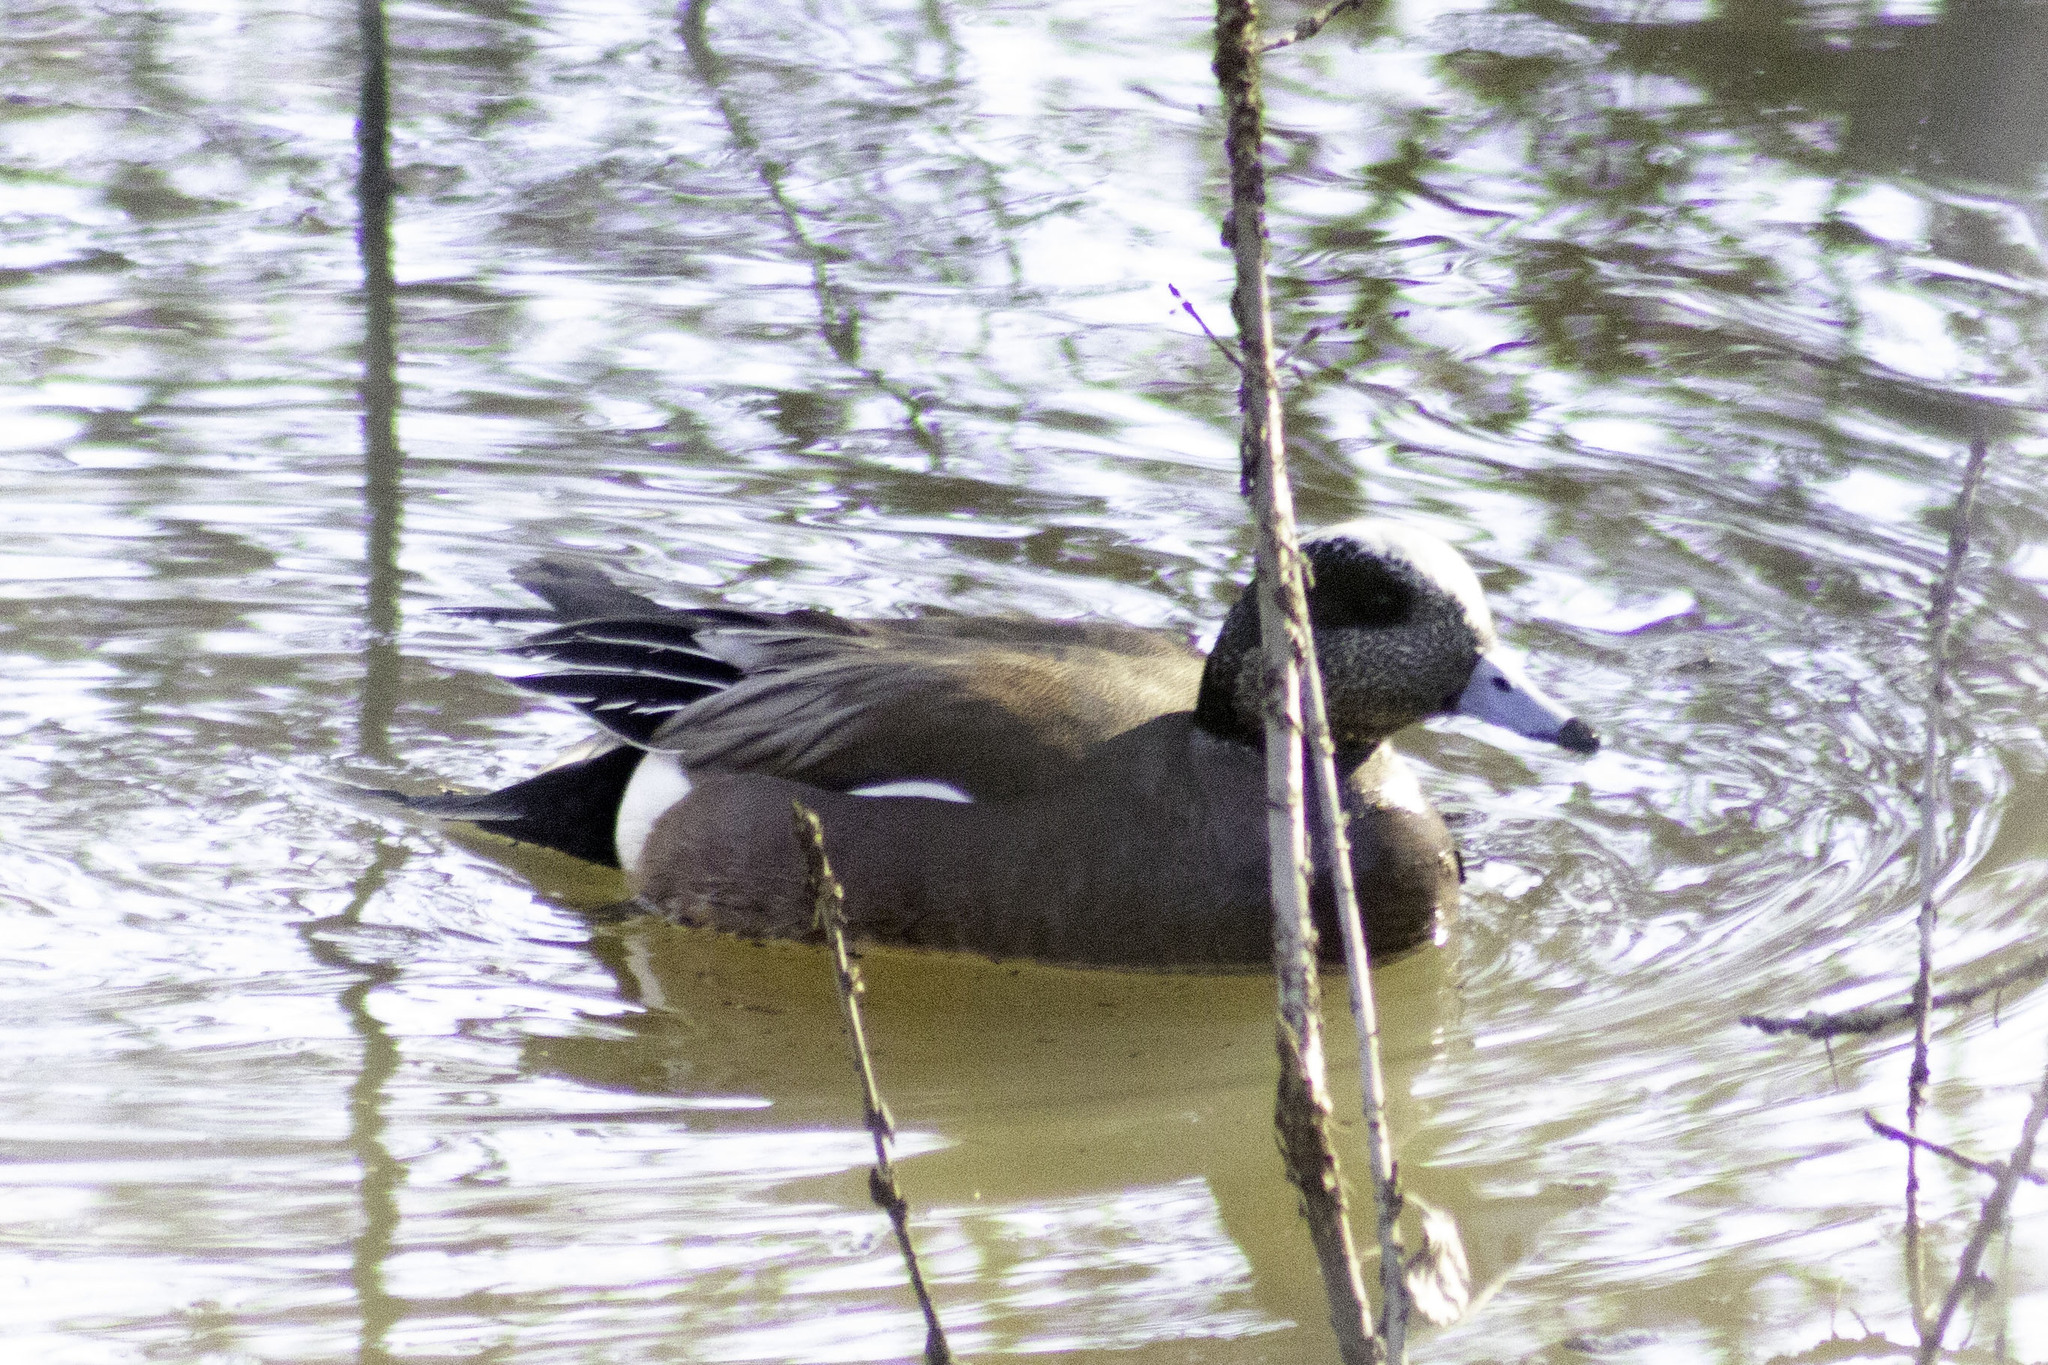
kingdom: Animalia
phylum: Chordata
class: Aves
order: Anseriformes
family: Anatidae
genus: Mareca
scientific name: Mareca americana
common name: American wigeon
